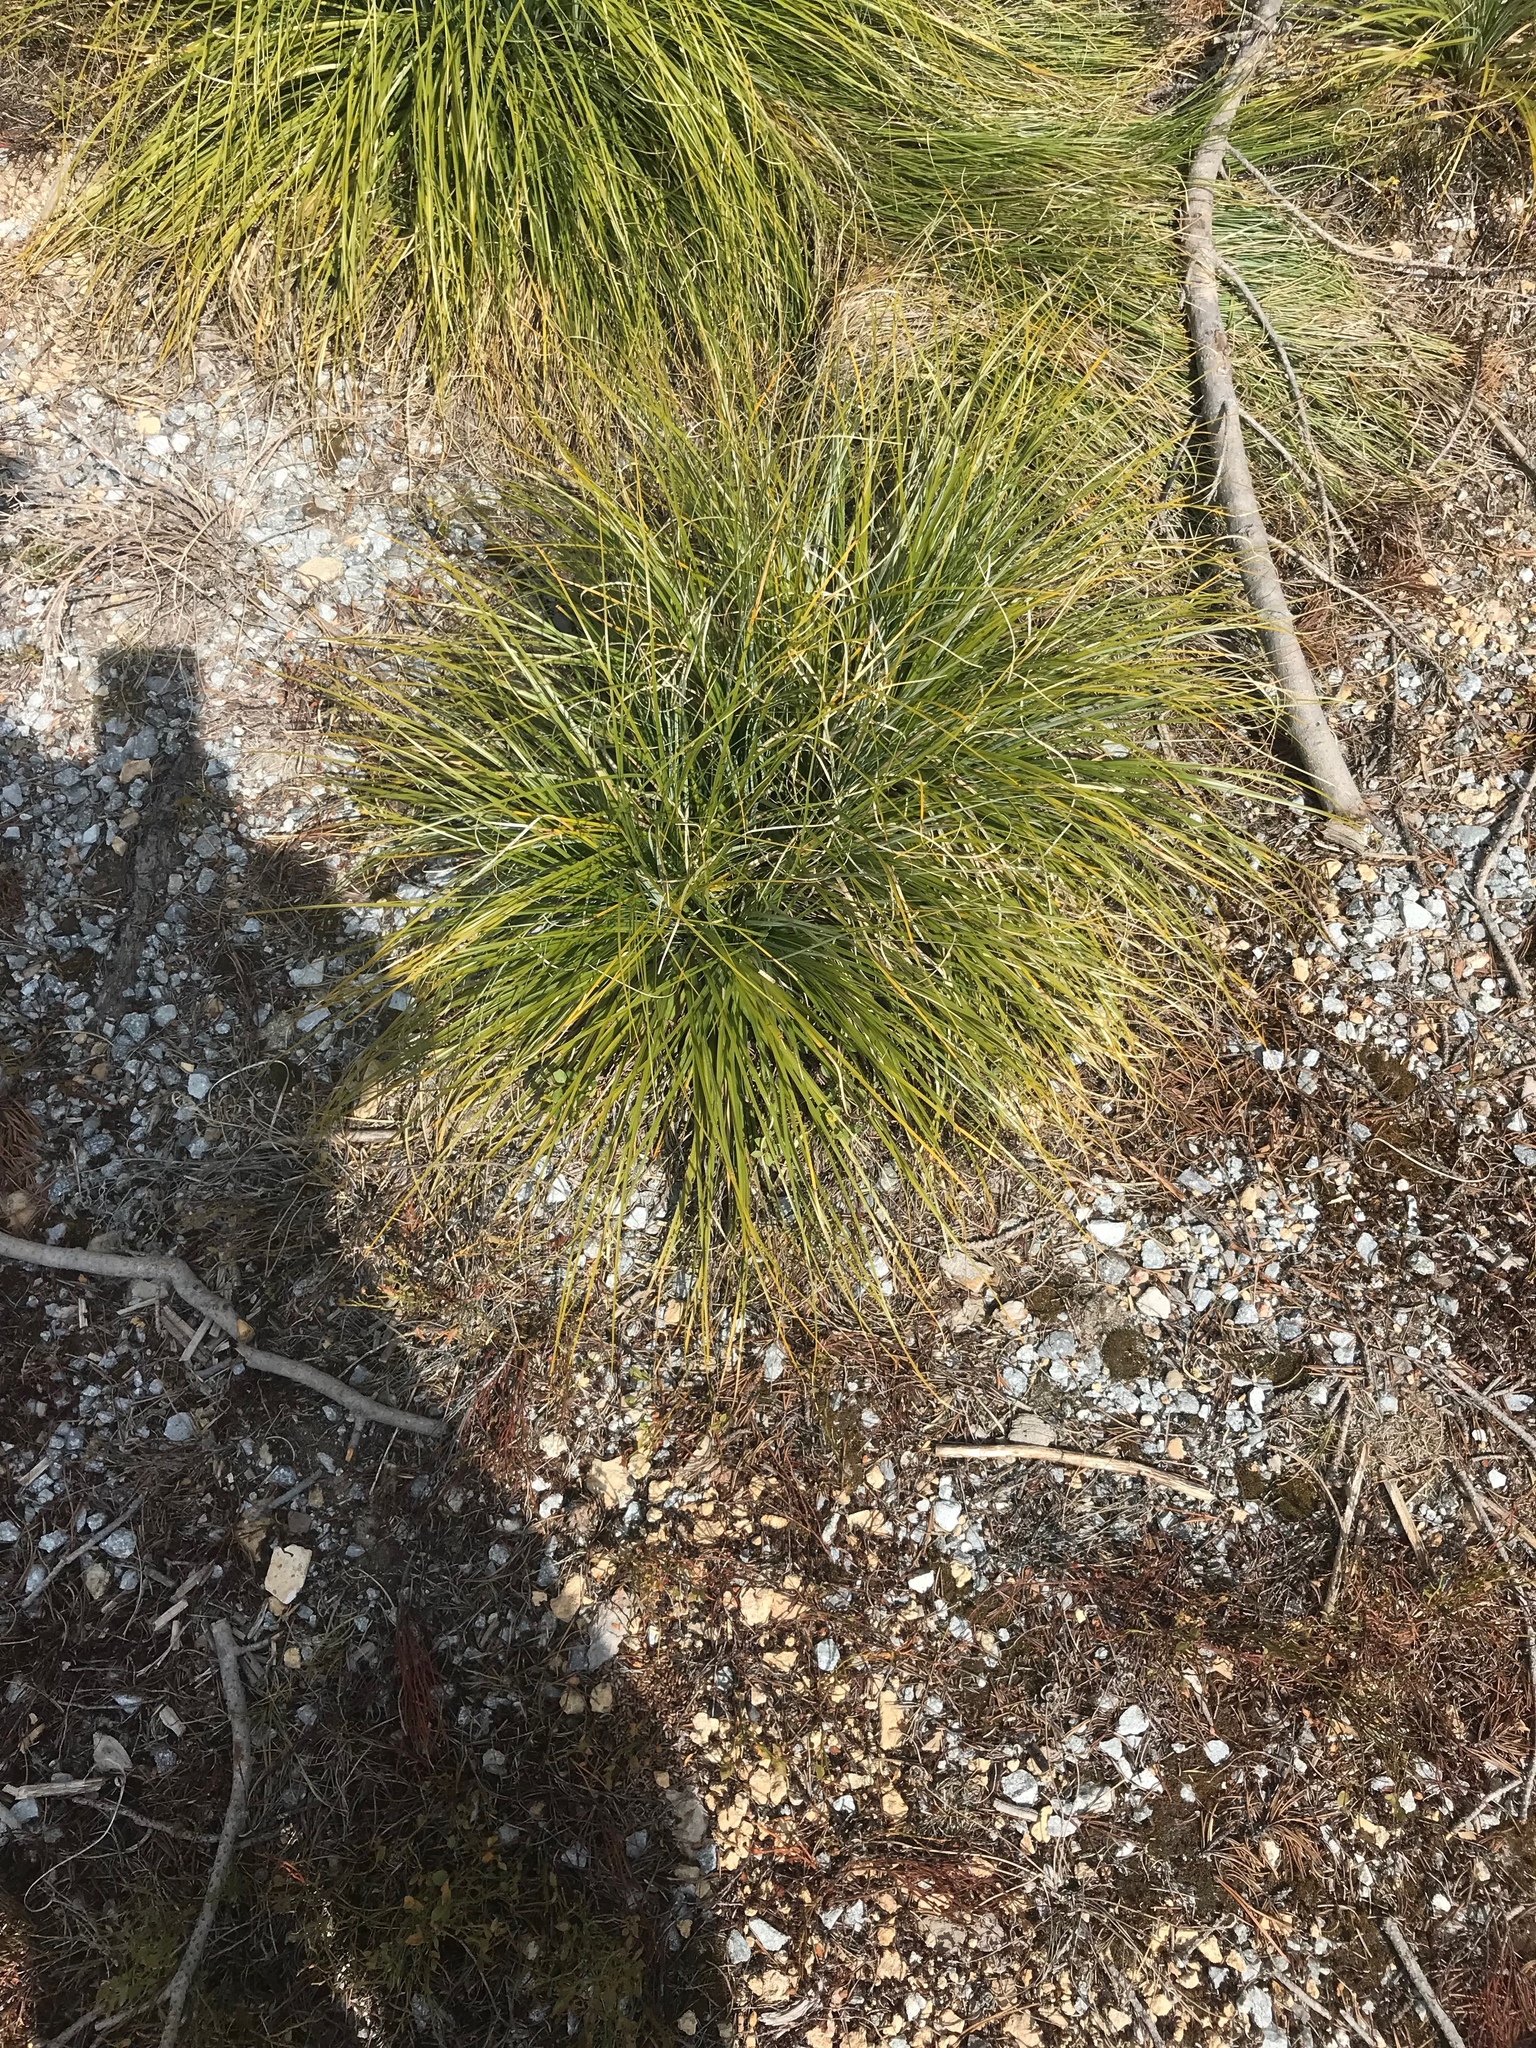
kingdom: Plantae
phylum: Tracheophyta
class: Liliopsida
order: Liliales
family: Melanthiaceae
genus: Xerophyllum
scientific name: Xerophyllum tenax
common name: Bear-grass
